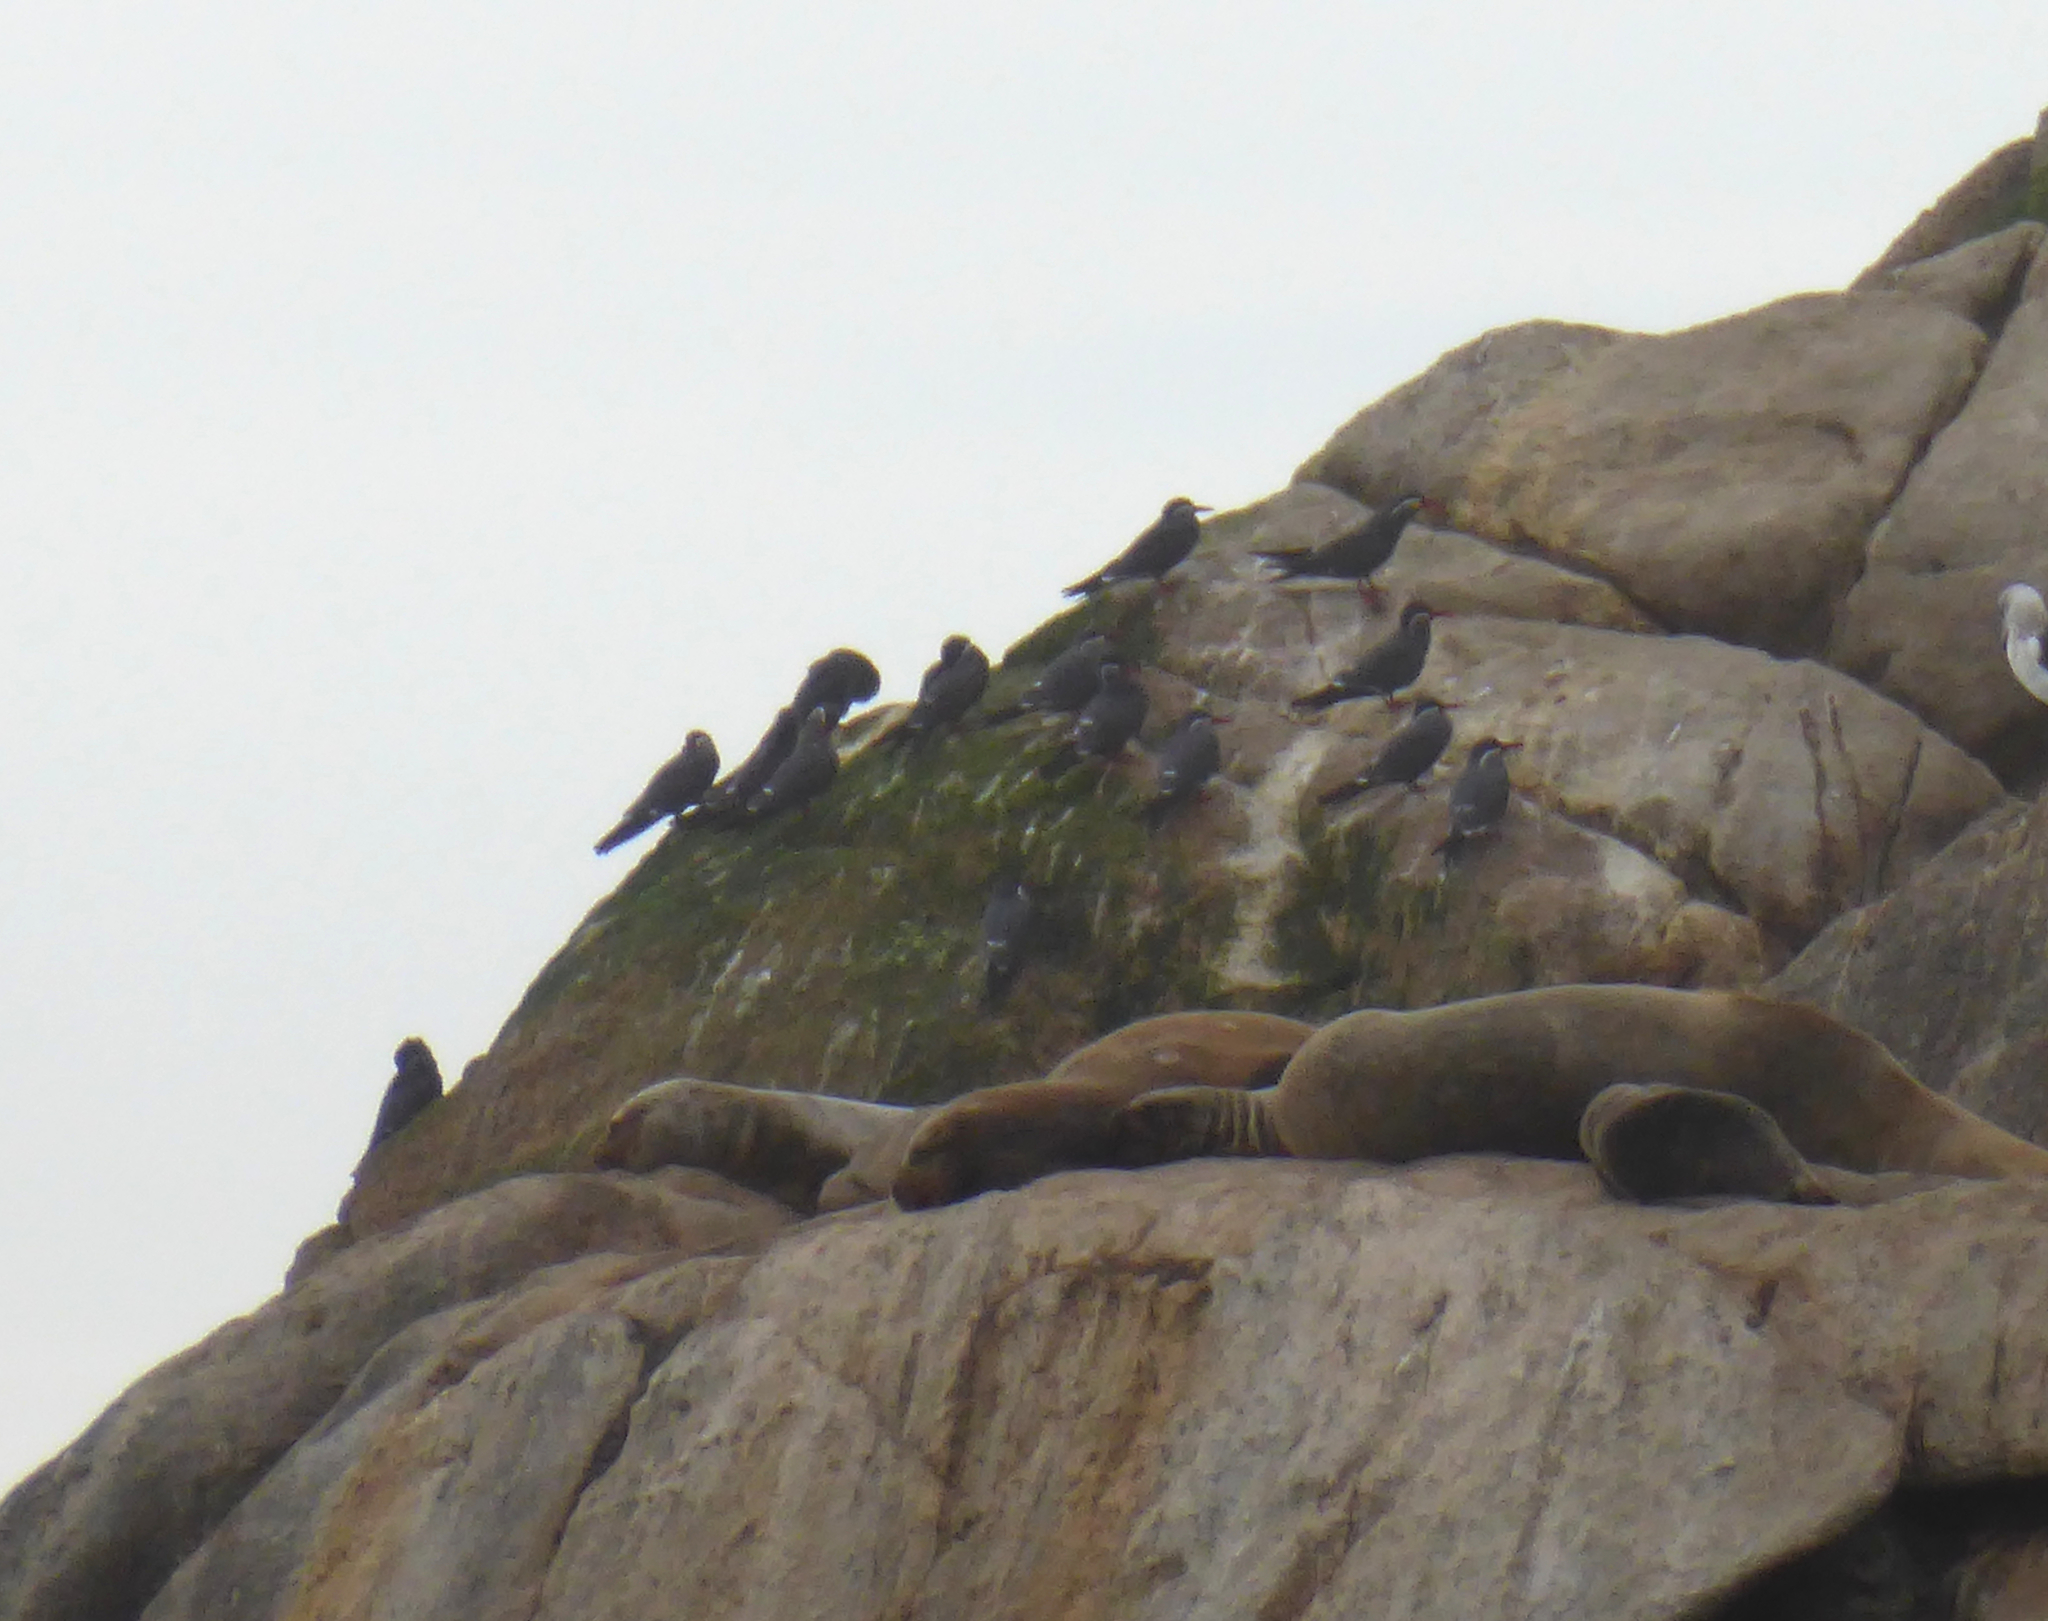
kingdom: Animalia
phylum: Chordata
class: Aves
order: Charadriiformes
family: Laridae
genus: Larosterna
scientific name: Larosterna inca
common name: Inca tern
